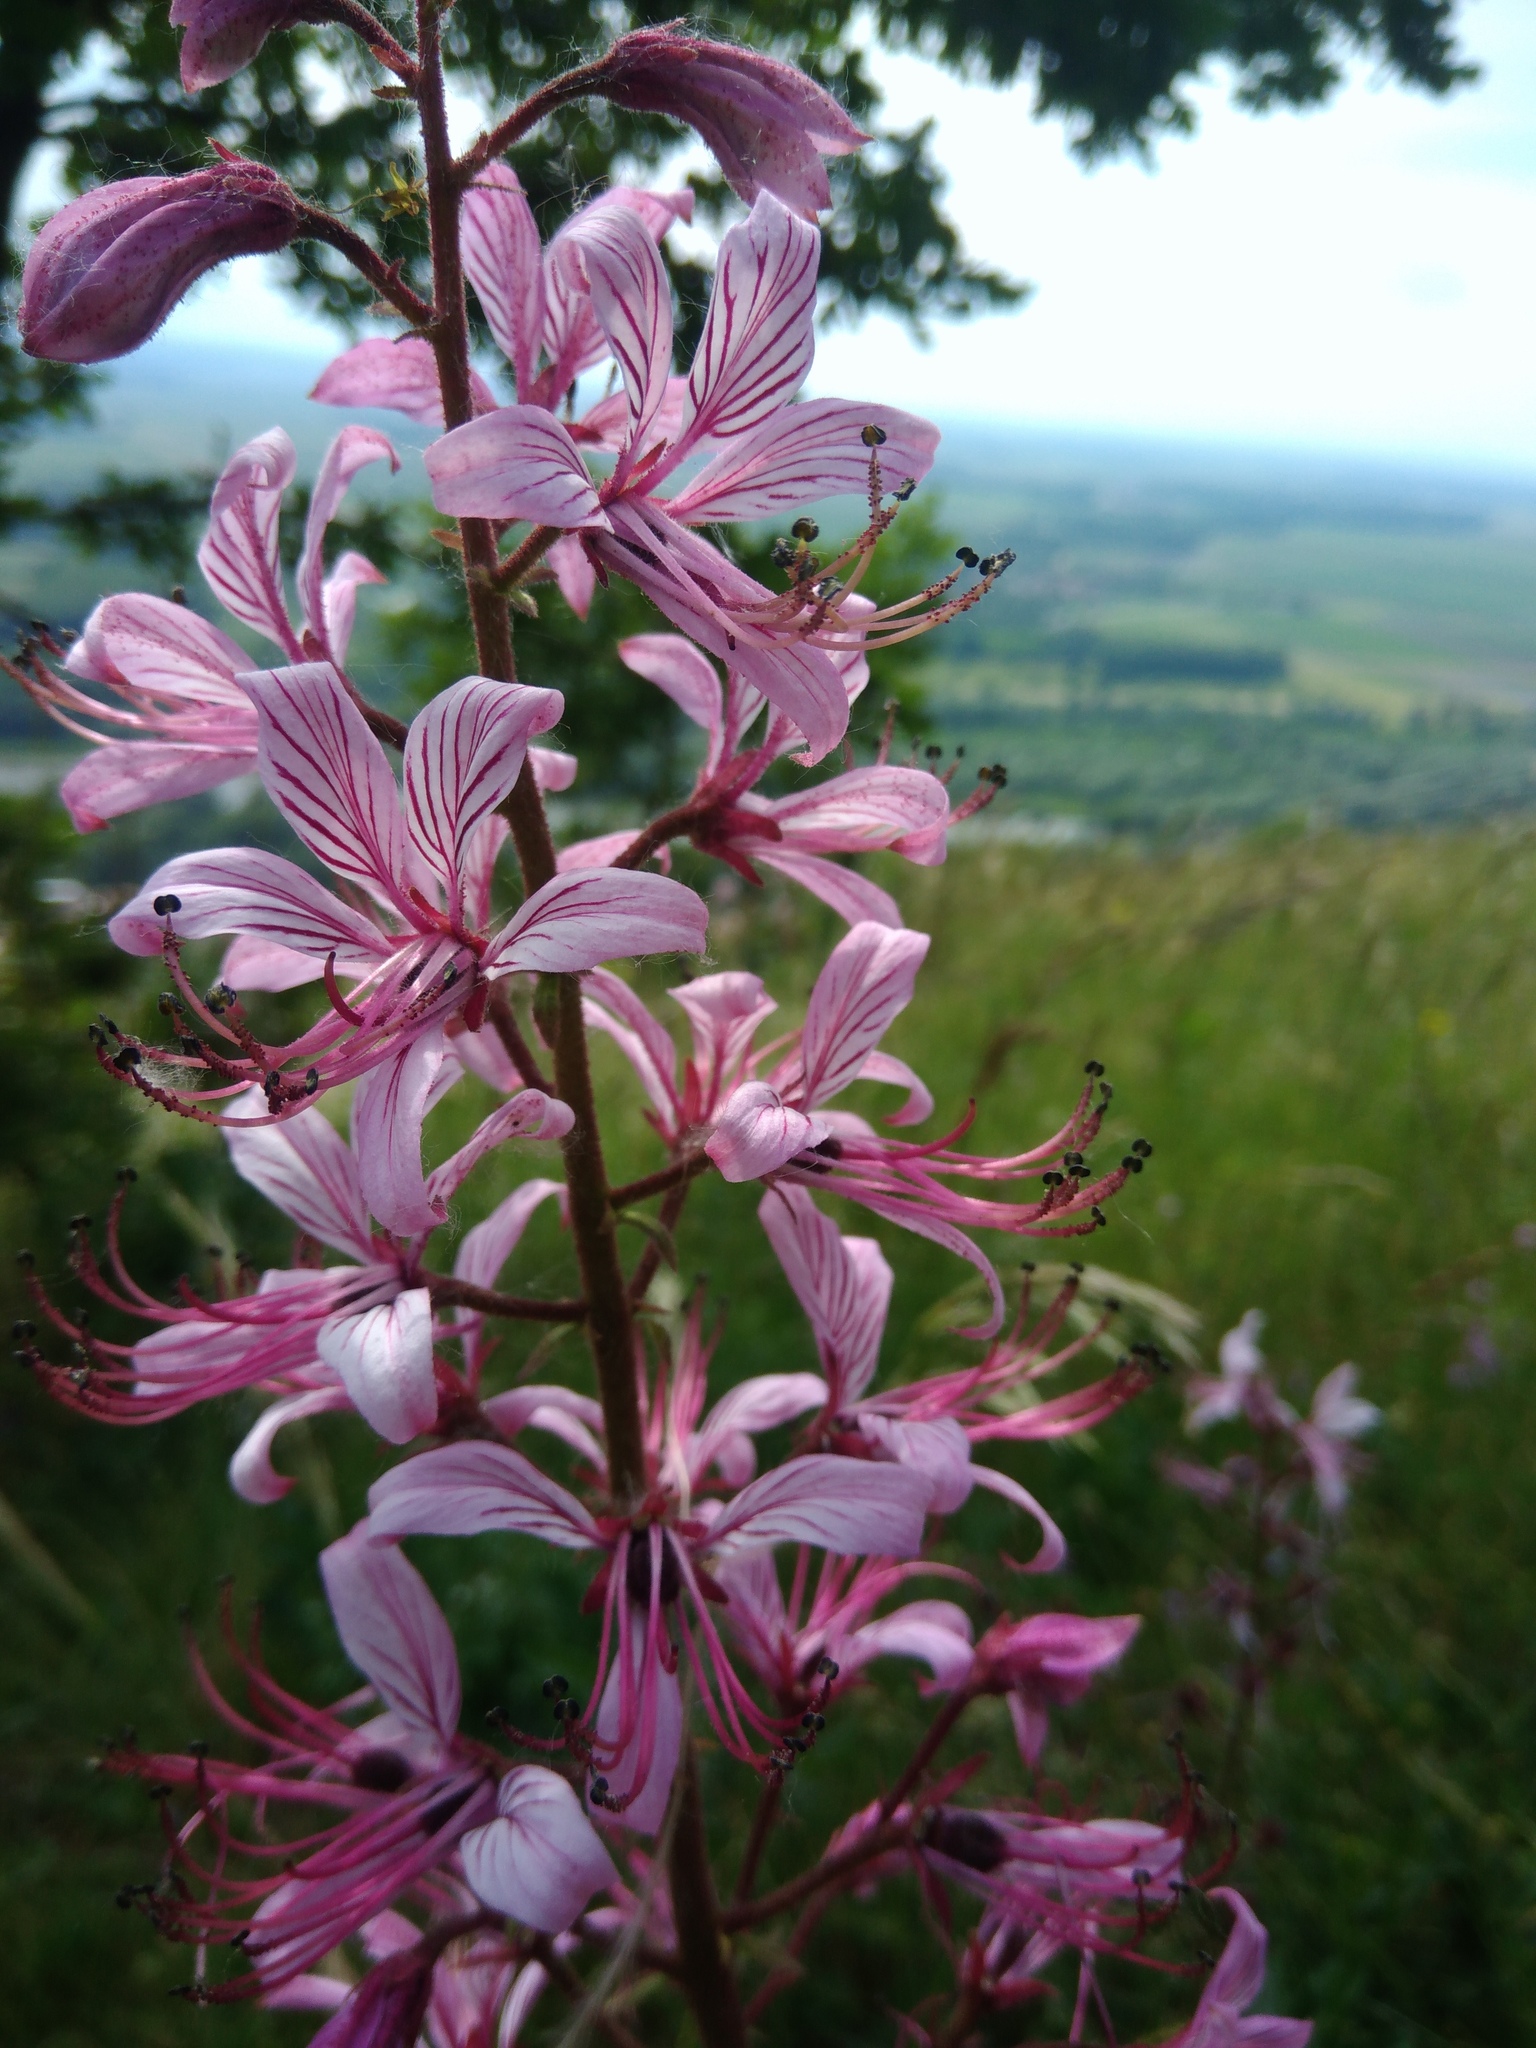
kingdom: Plantae
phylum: Tracheophyta
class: Magnoliopsida
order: Sapindales
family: Rutaceae
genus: Dictamnus
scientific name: Dictamnus albus
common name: Gasplant
